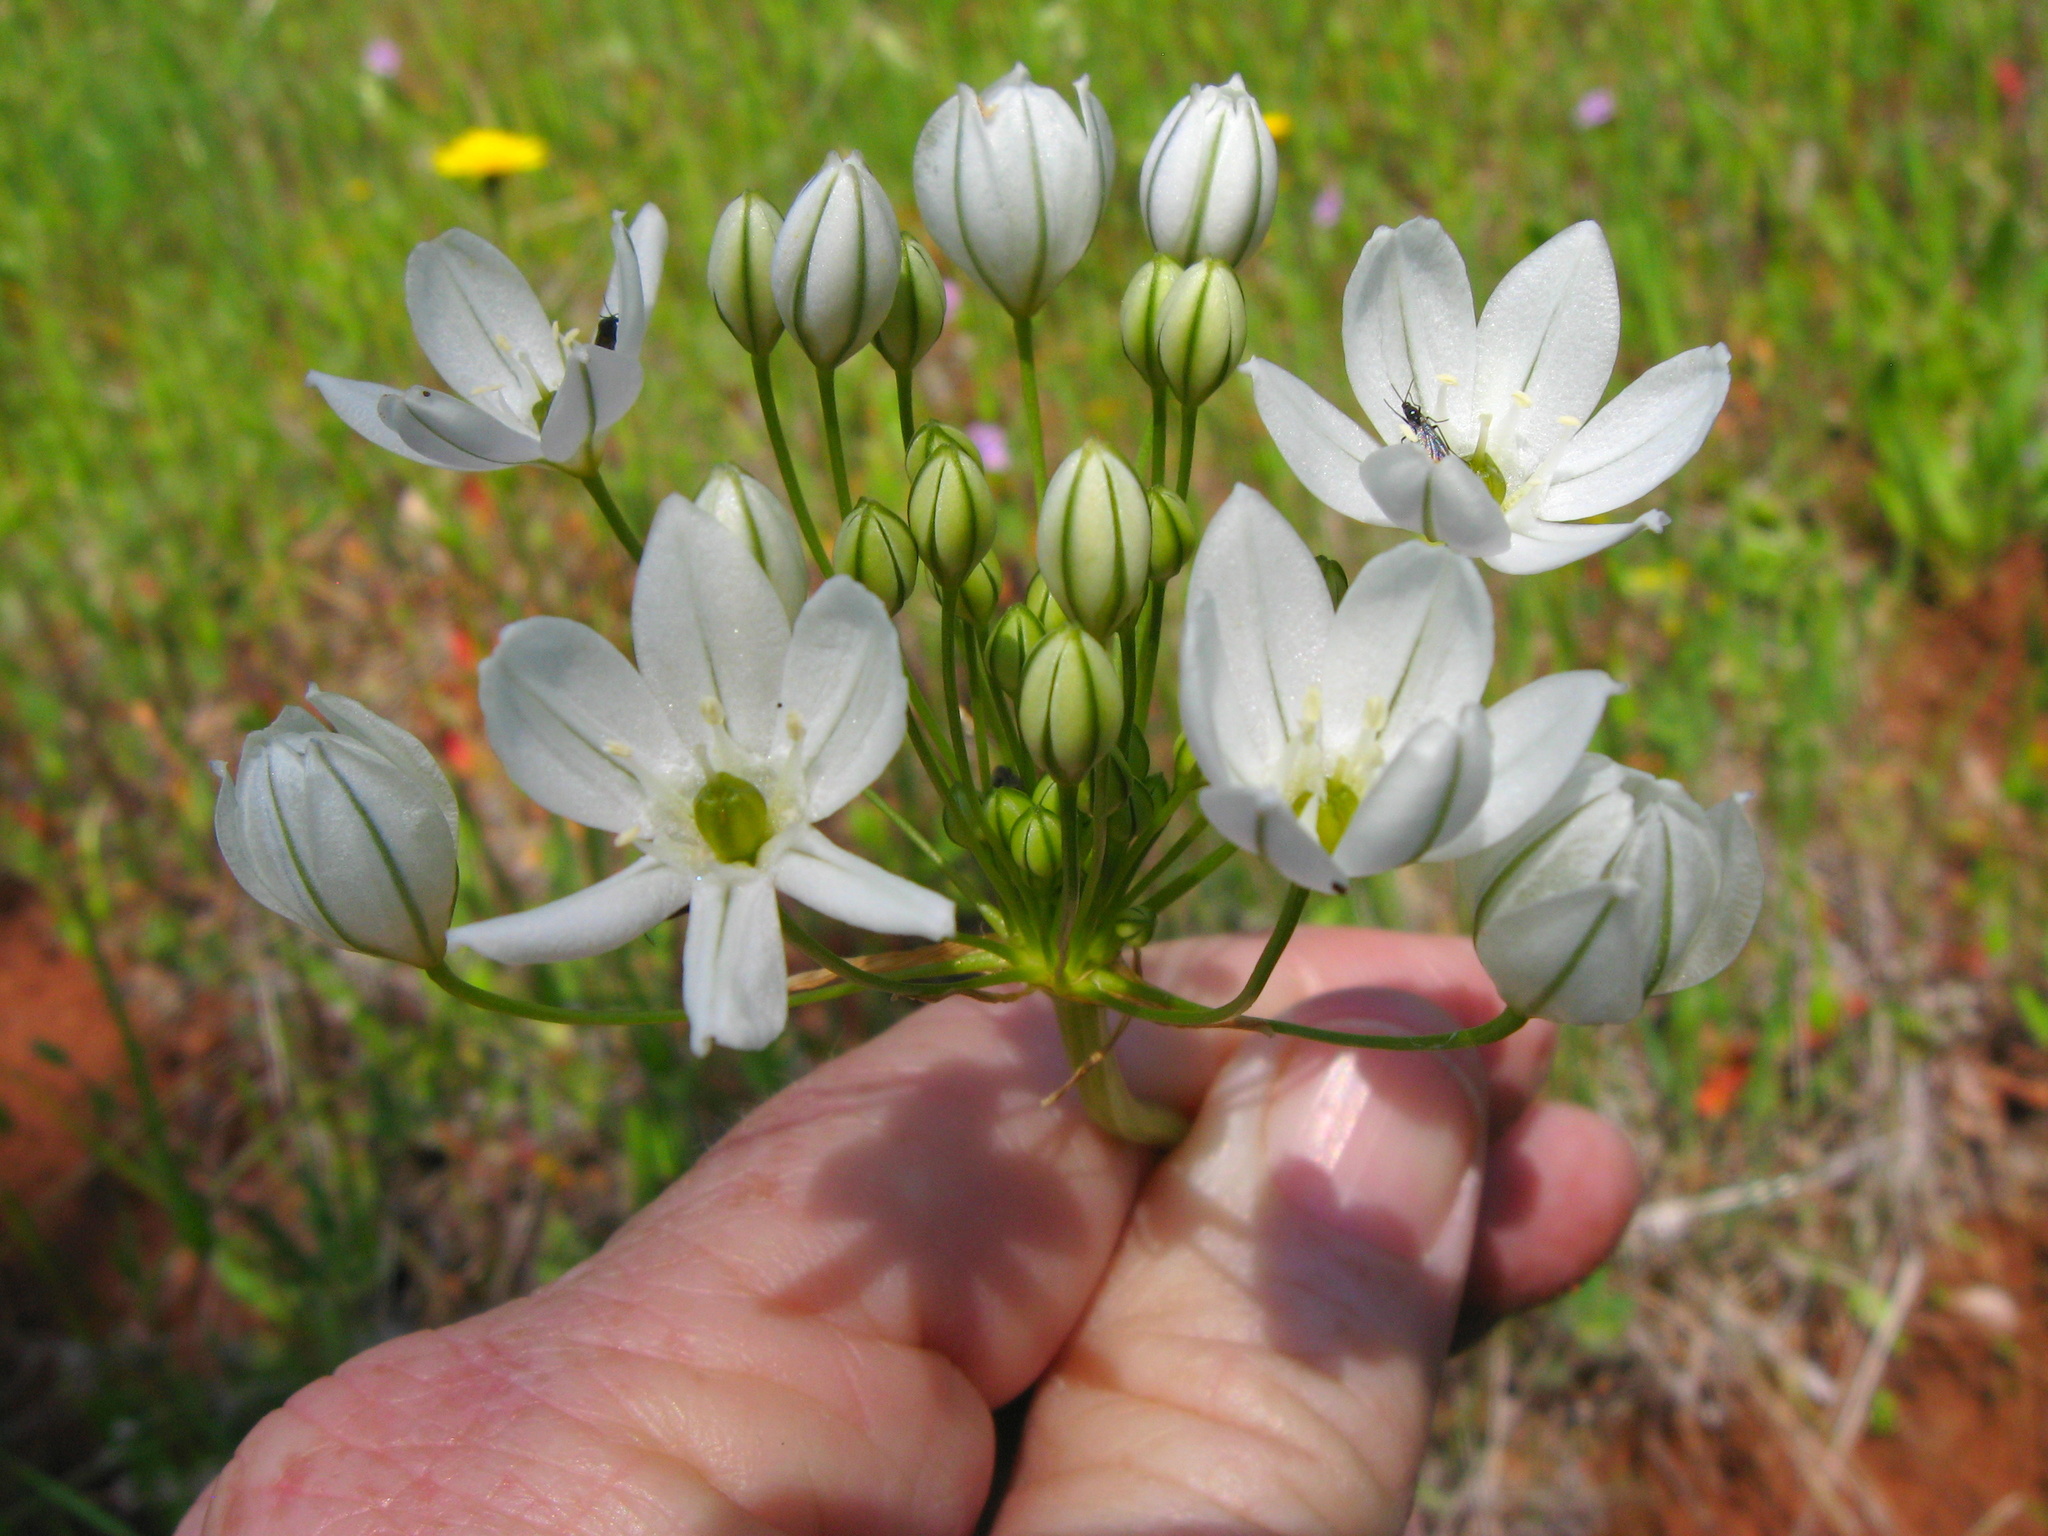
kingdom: Plantae
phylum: Tracheophyta
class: Liliopsida
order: Asparagales
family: Asparagaceae
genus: Triteleia
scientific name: Triteleia hyacinthina
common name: White brodiaea
